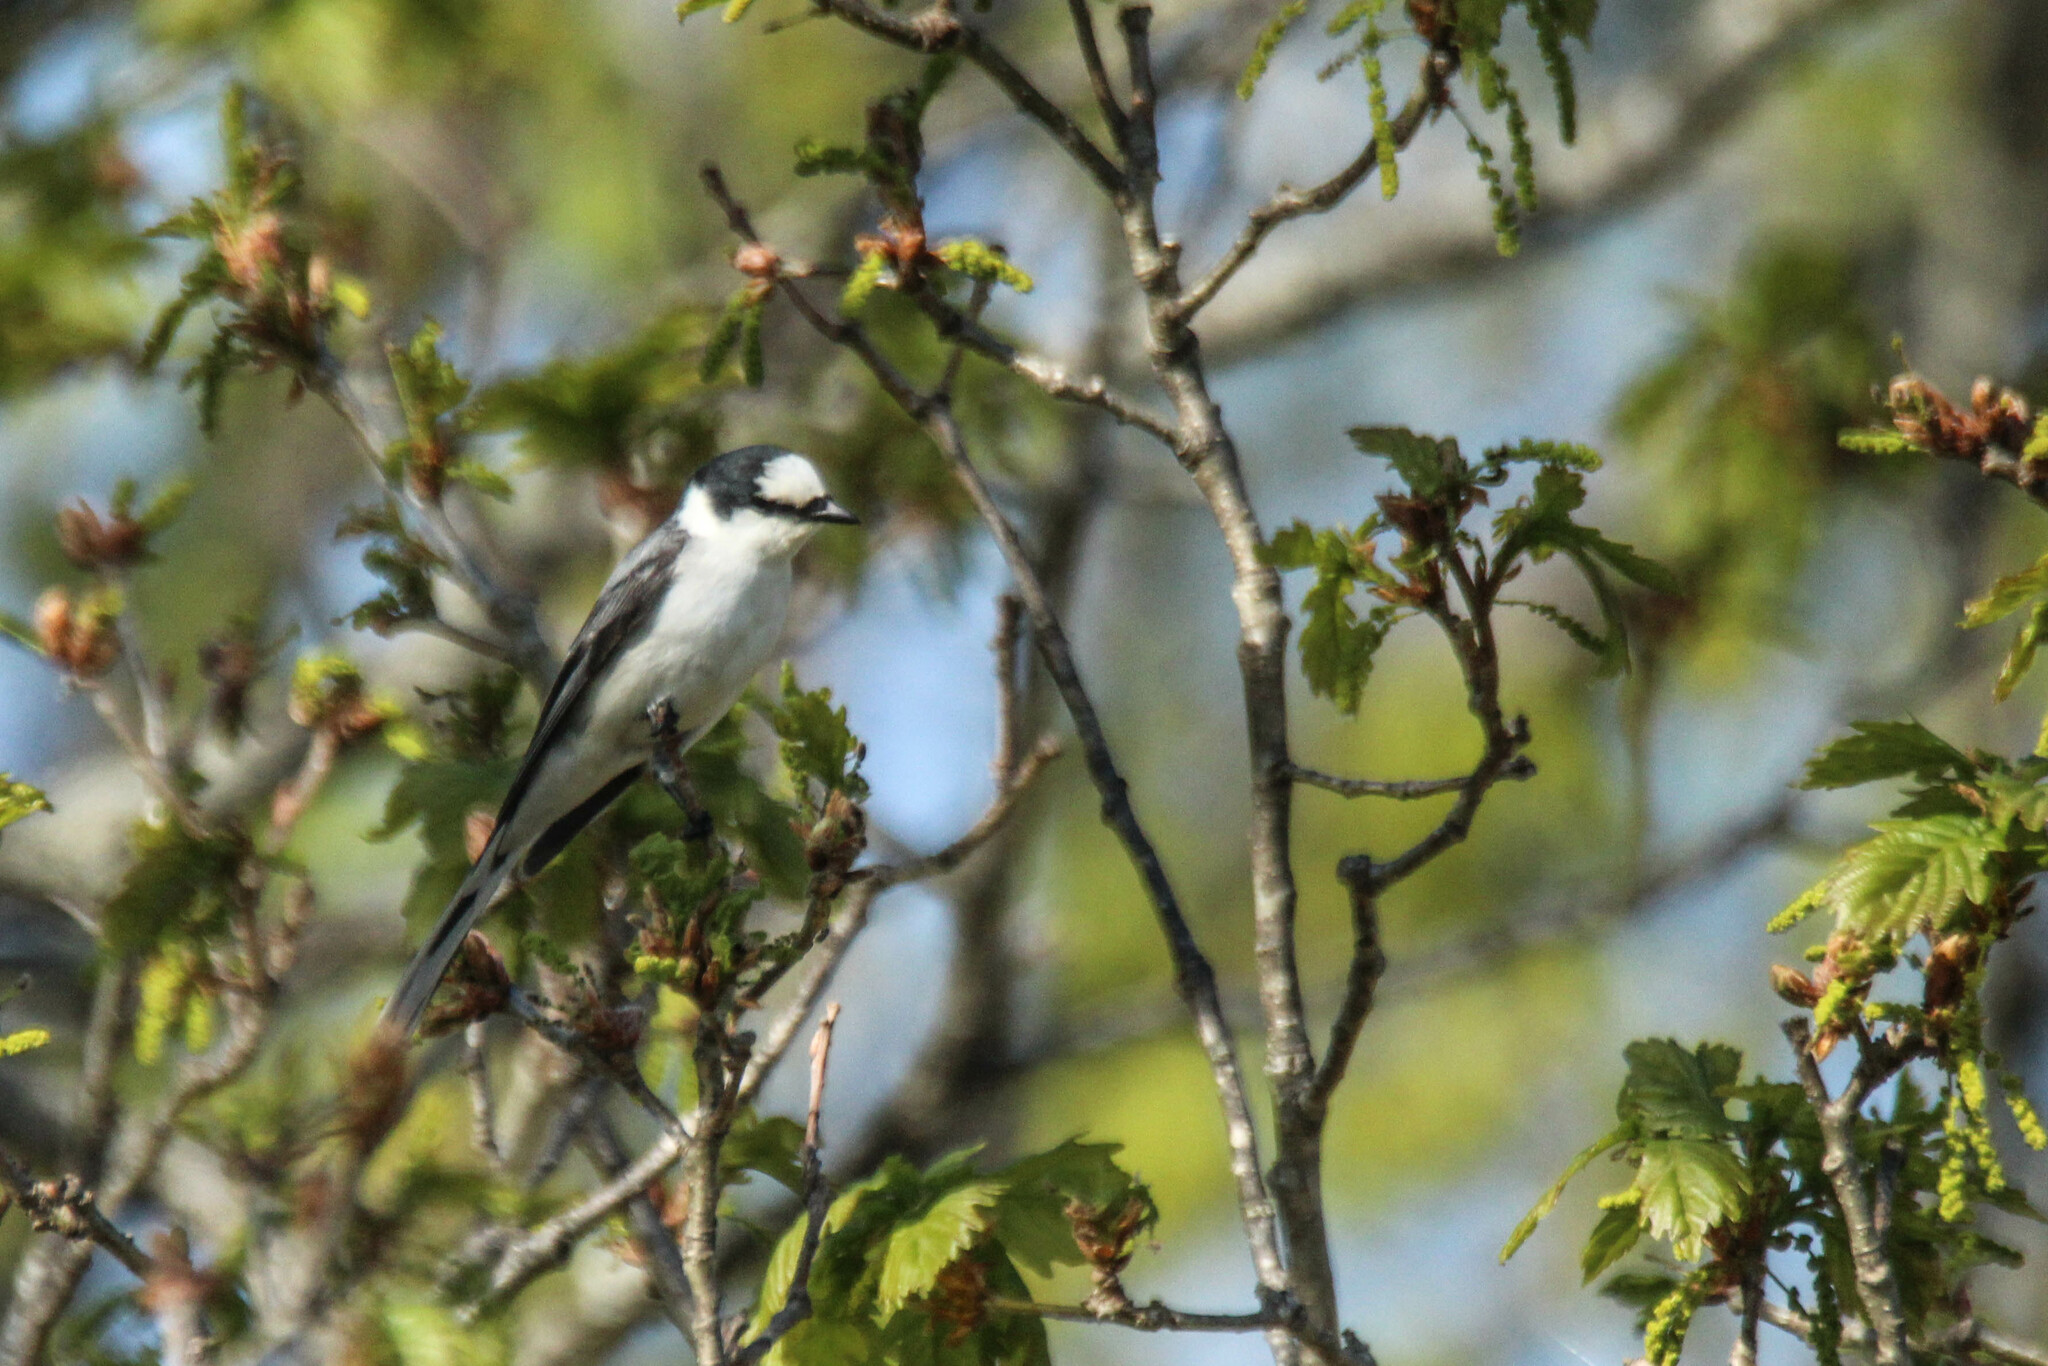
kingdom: Animalia
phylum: Chordata
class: Aves
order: Passeriformes
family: Campephagidae
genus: Pericrocotus
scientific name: Pericrocotus divaricatus
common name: Ashy minivet
